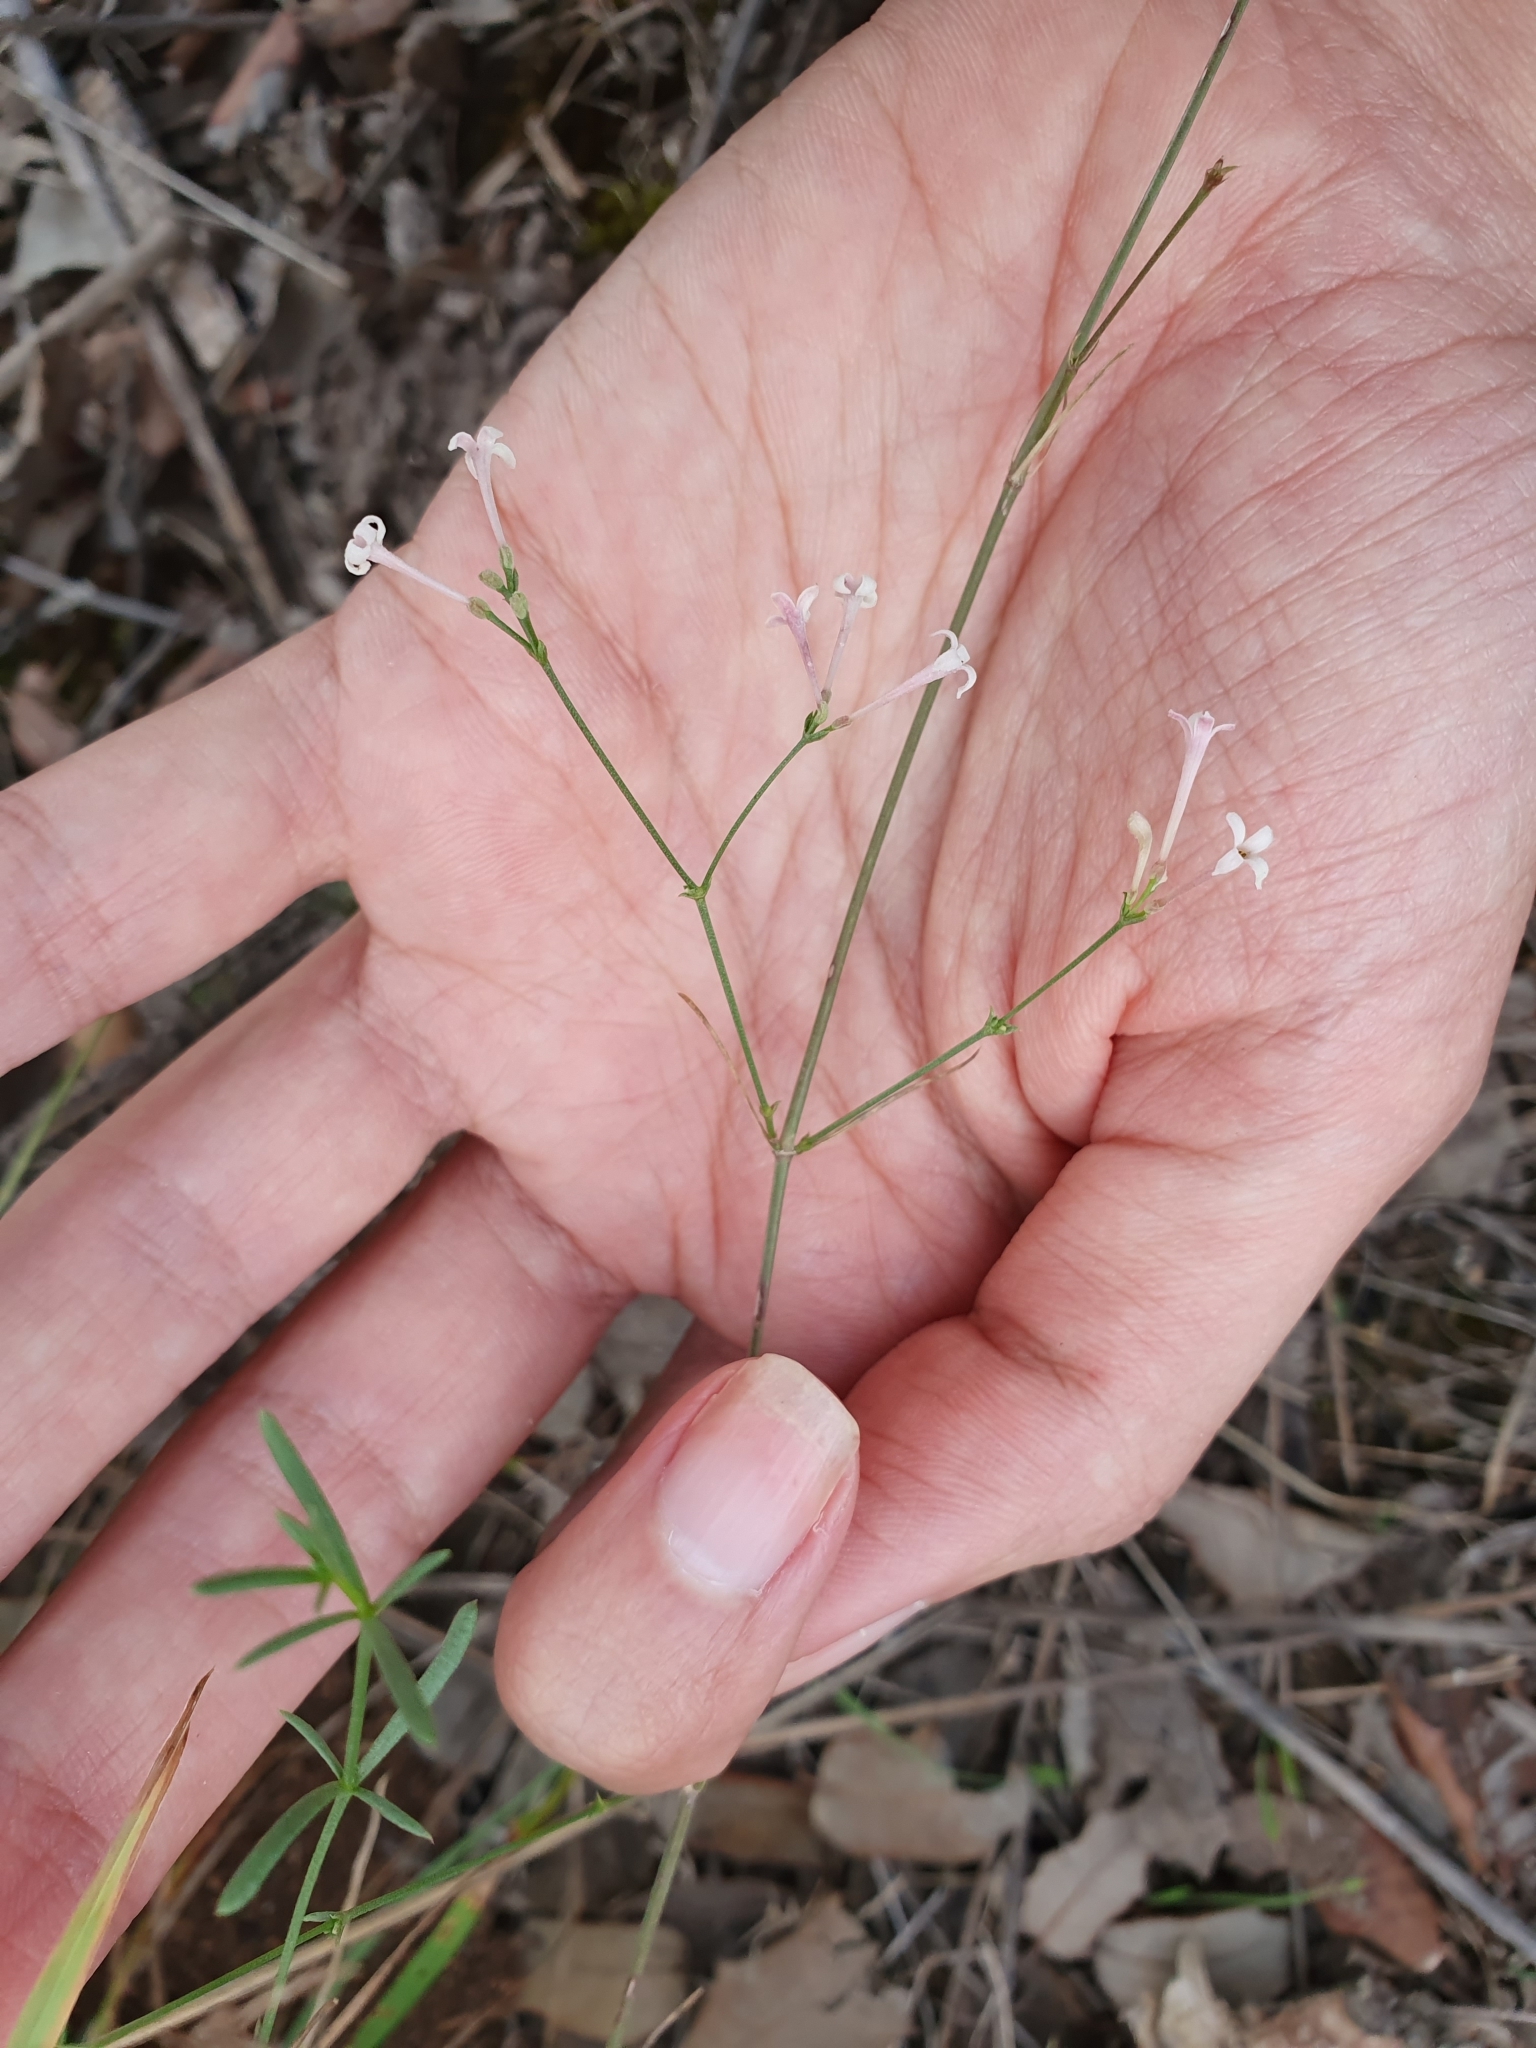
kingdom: Plantae
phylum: Tracheophyta
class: Magnoliopsida
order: Gentianales
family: Rubiaceae
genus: Cynanchica
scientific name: Cynanchica aristata
